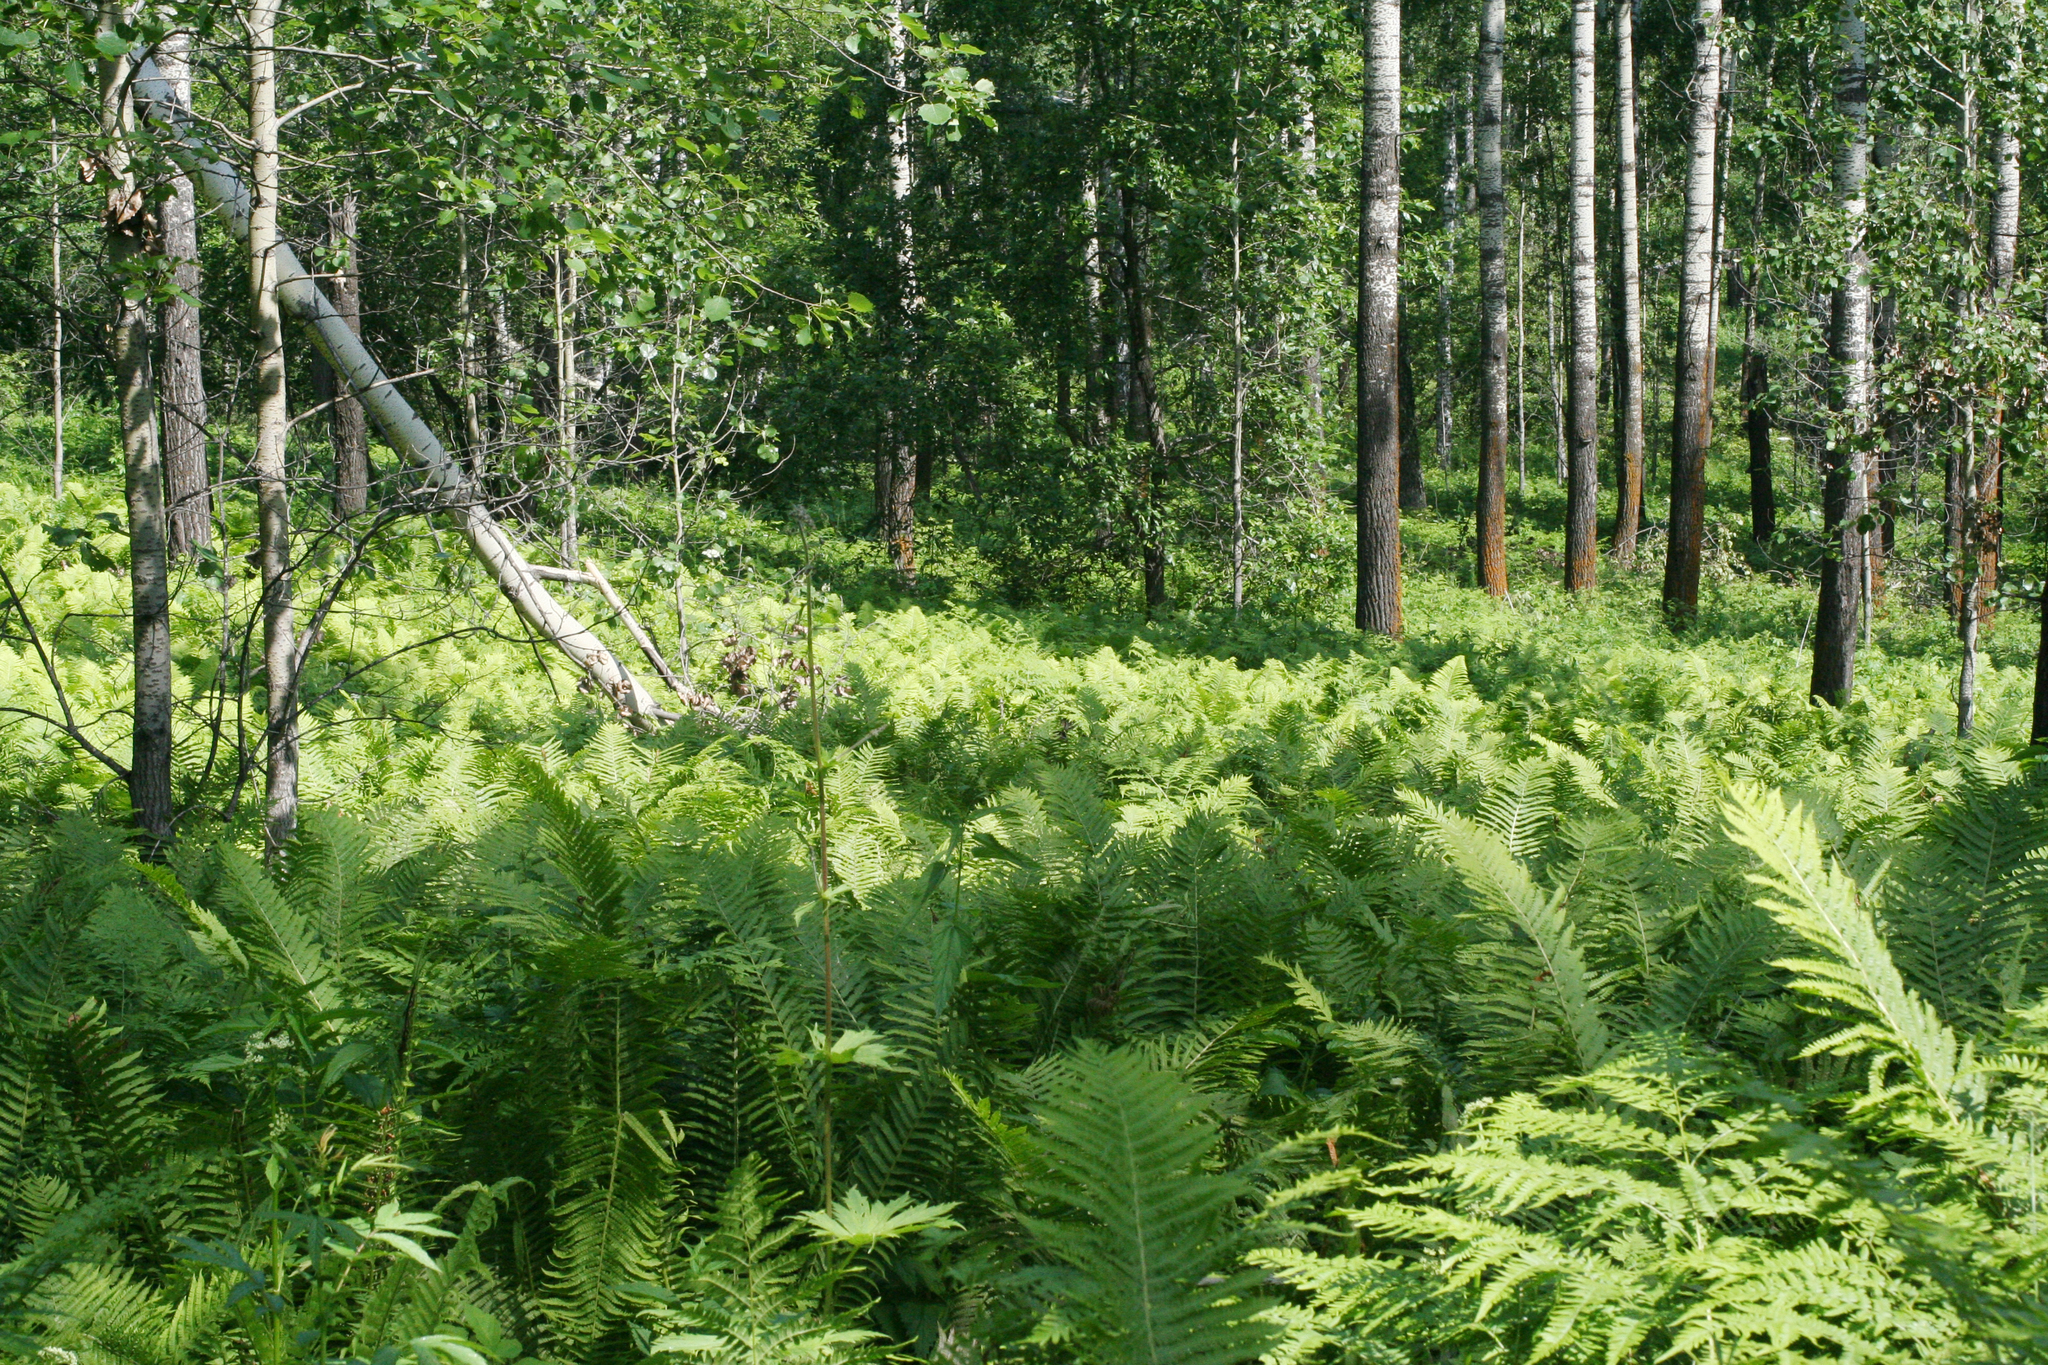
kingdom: Plantae
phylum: Tracheophyta
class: Polypodiopsida
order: Polypodiales
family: Onocleaceae
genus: Matteuccia
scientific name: Matteuccia struthiopteris
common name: Ostrich fern
